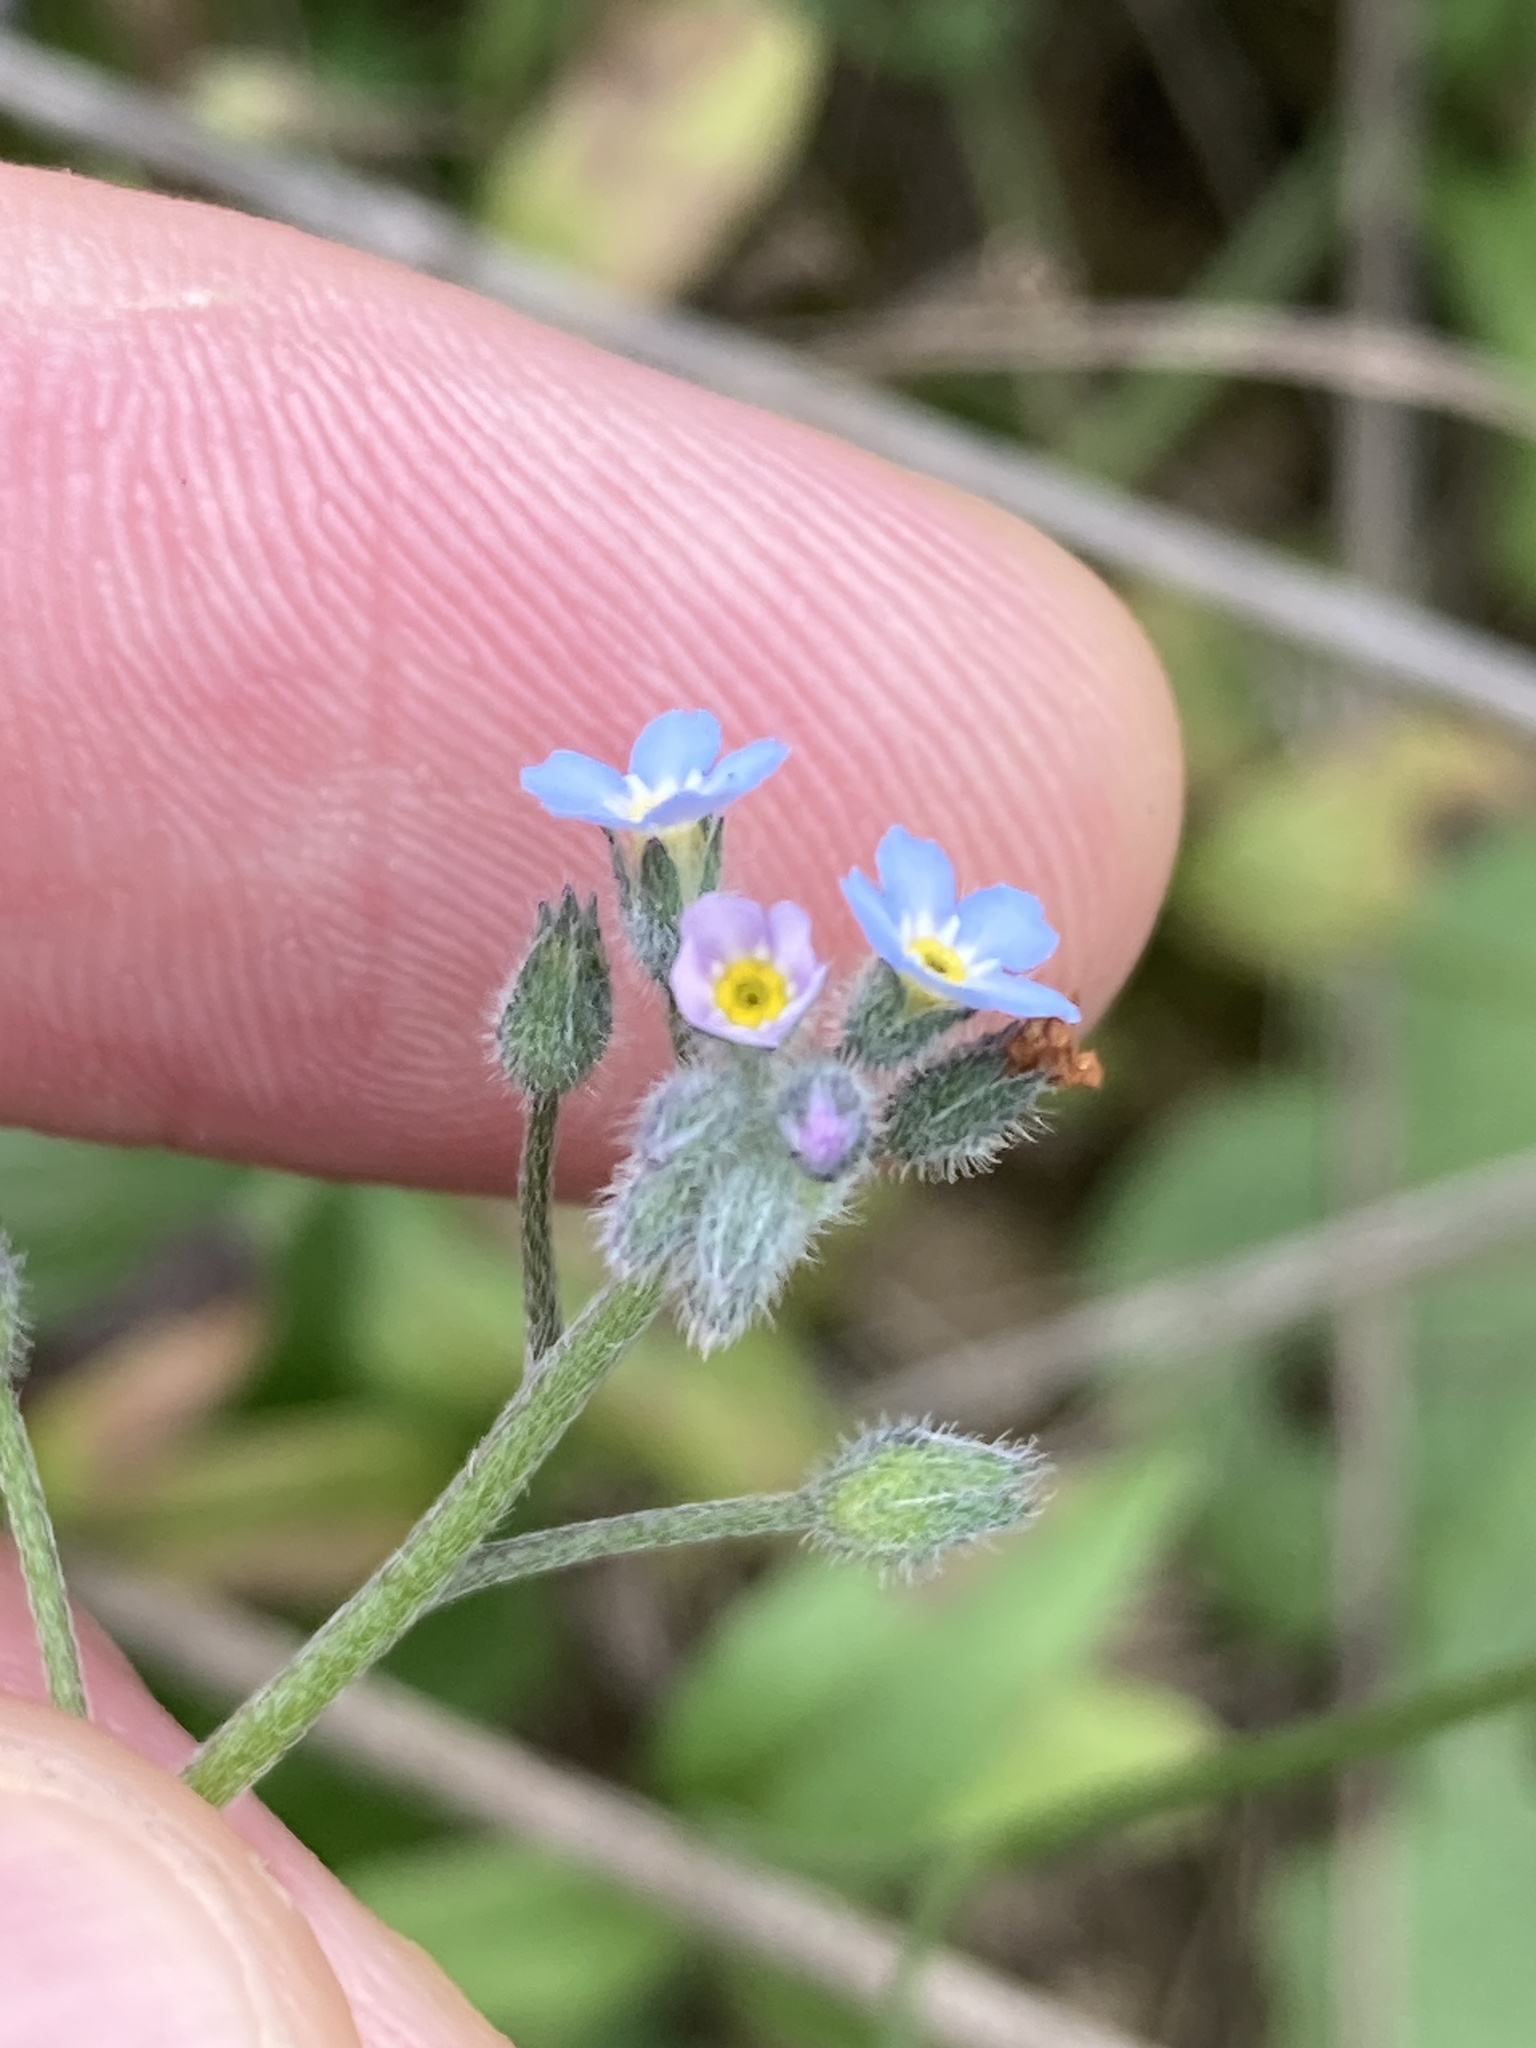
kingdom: Plantae
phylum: Tracheophyta
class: Magnoliopsida
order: Boraginales
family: Boraginaceae
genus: Myosotis
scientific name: Myosotis arvensis
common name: Field forget-me-not
